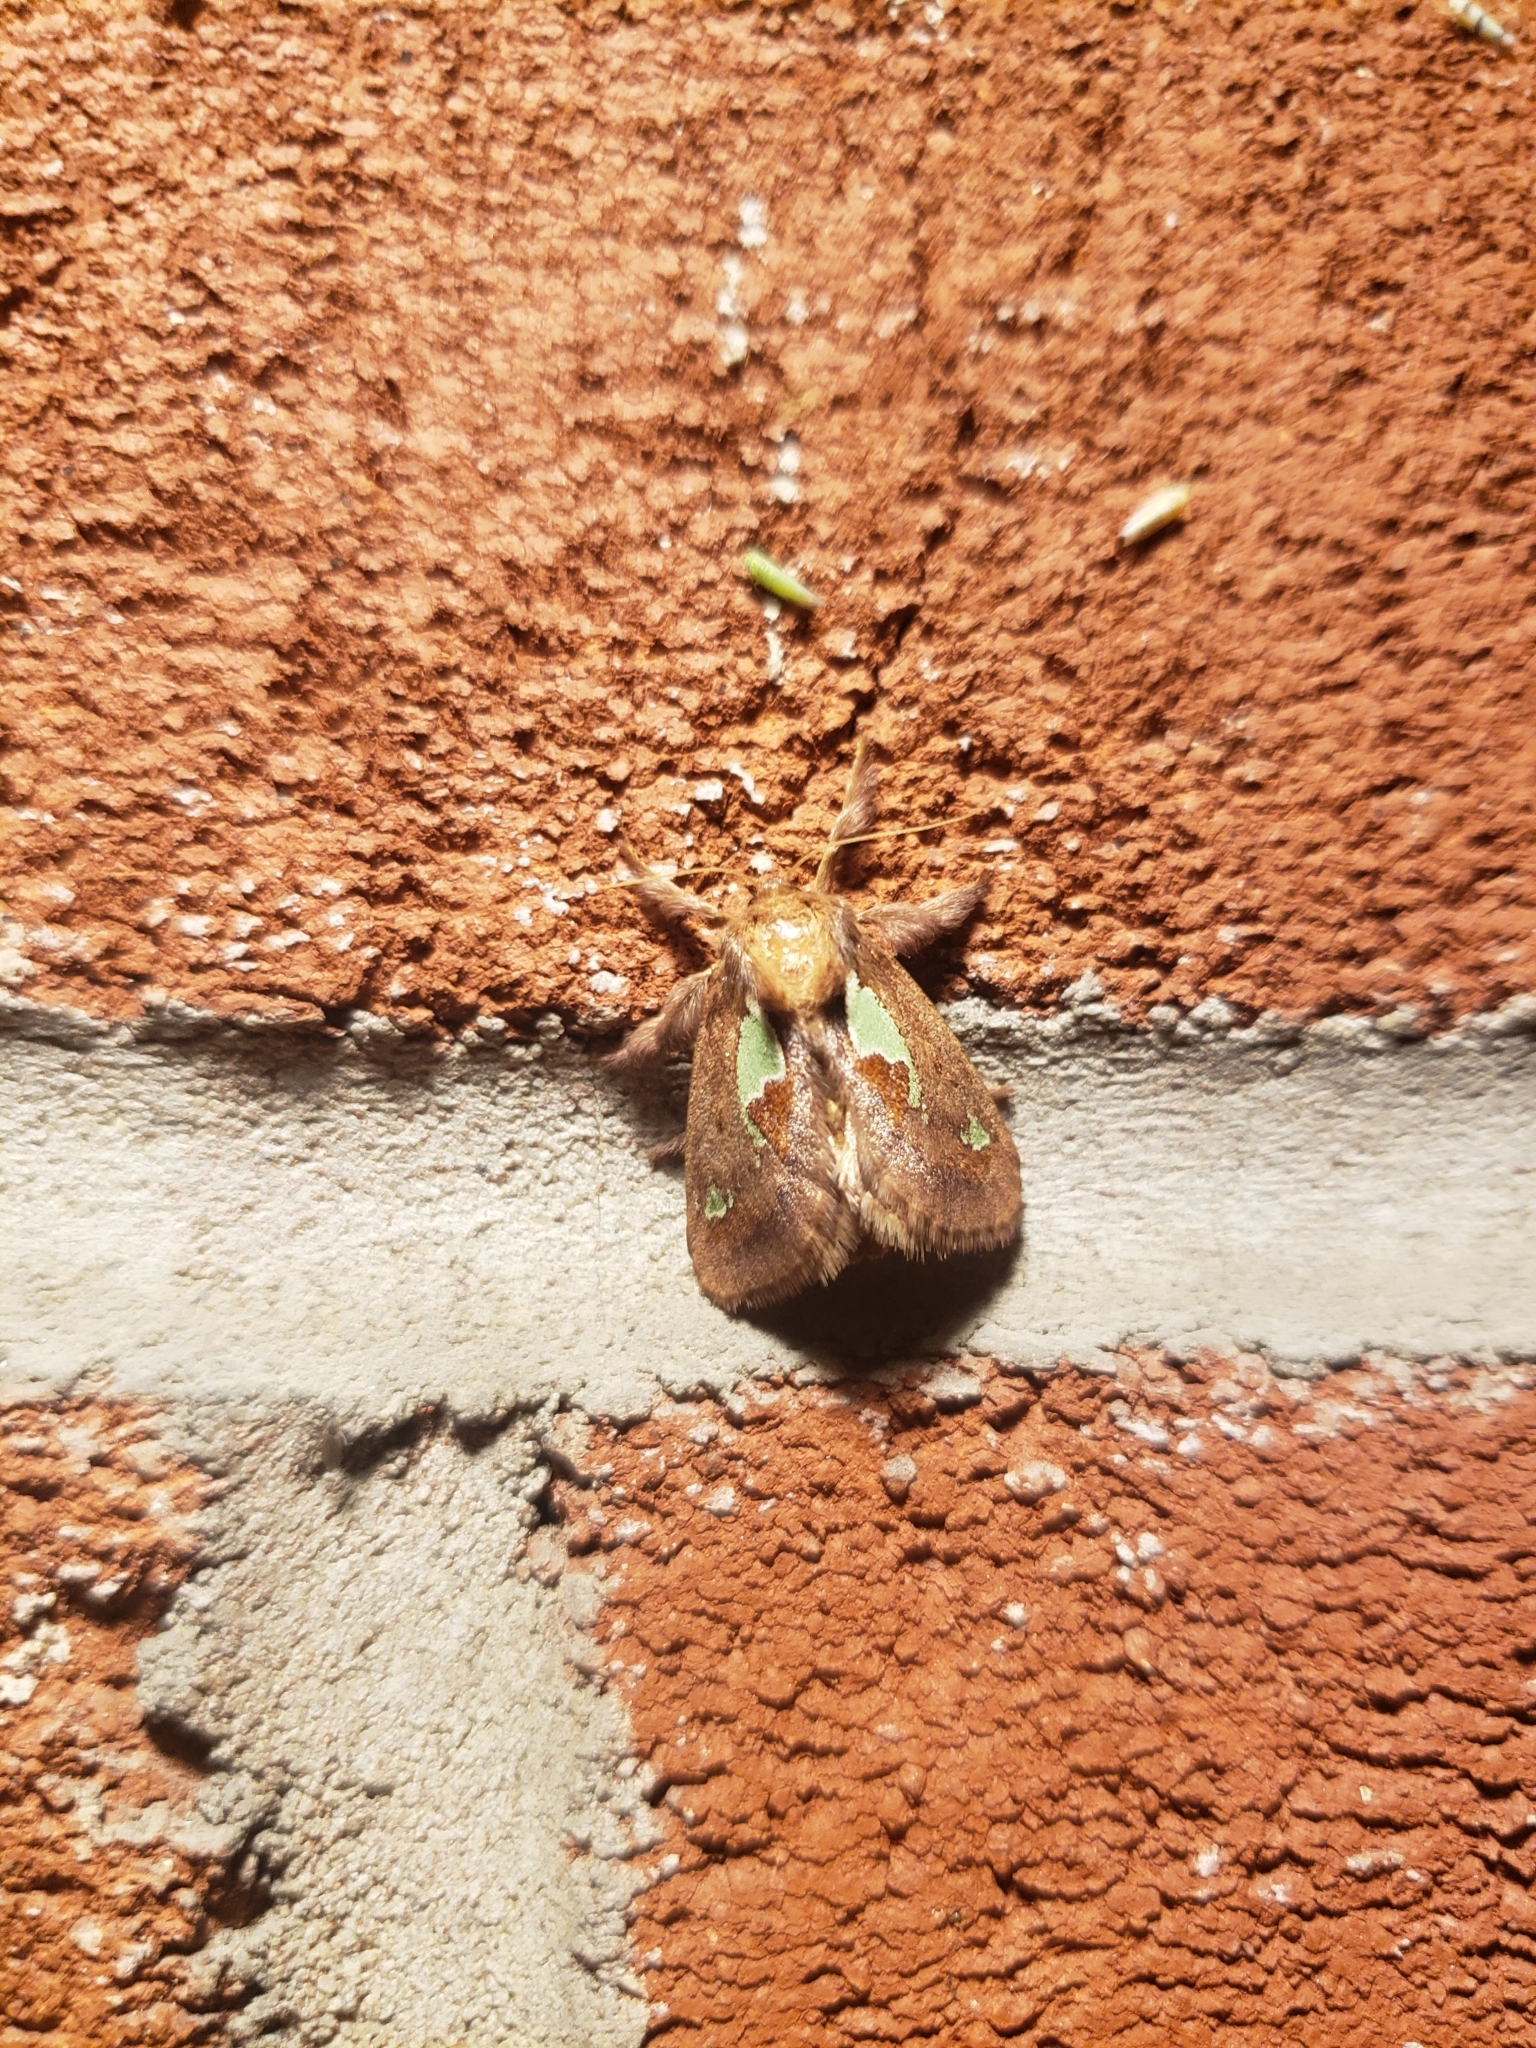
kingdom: Animalia
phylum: Arthropoda
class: Insecta
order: Lepidoptera
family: Limacodidae
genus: Euclea
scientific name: Euclea delphinii
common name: Spiny oak-slug moth
